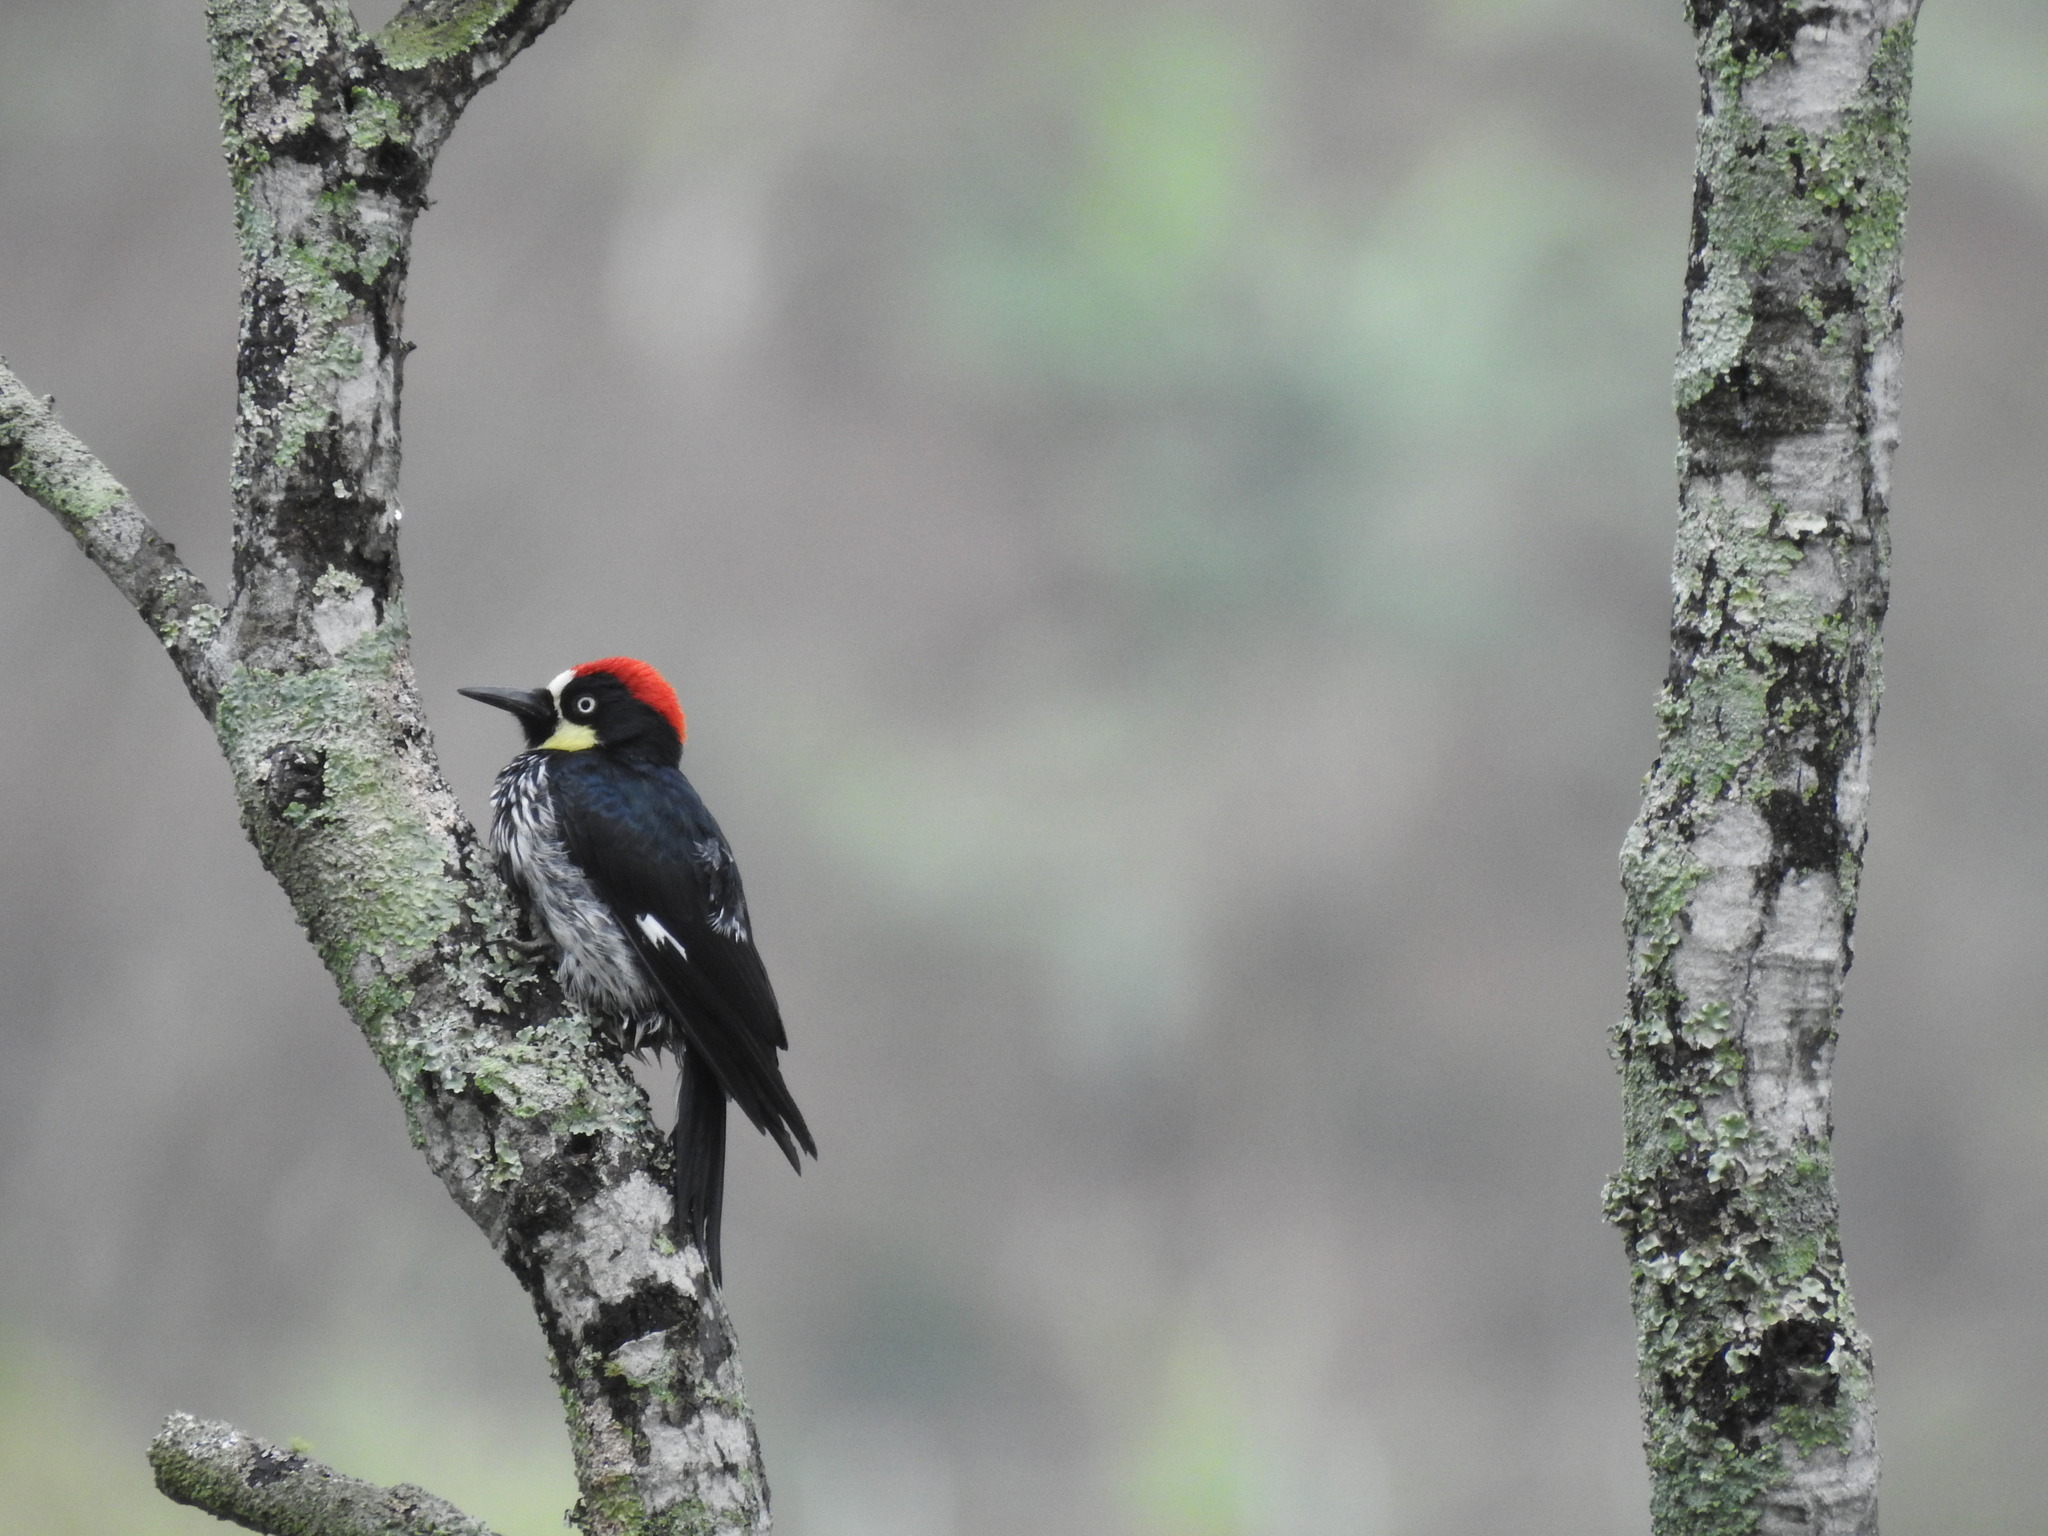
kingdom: Animalia
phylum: Chordata
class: Aves
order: Piciformes
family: Picidae
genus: Melanerpes
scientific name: Melanerpes formicivorus
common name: Acorn woodpecker
